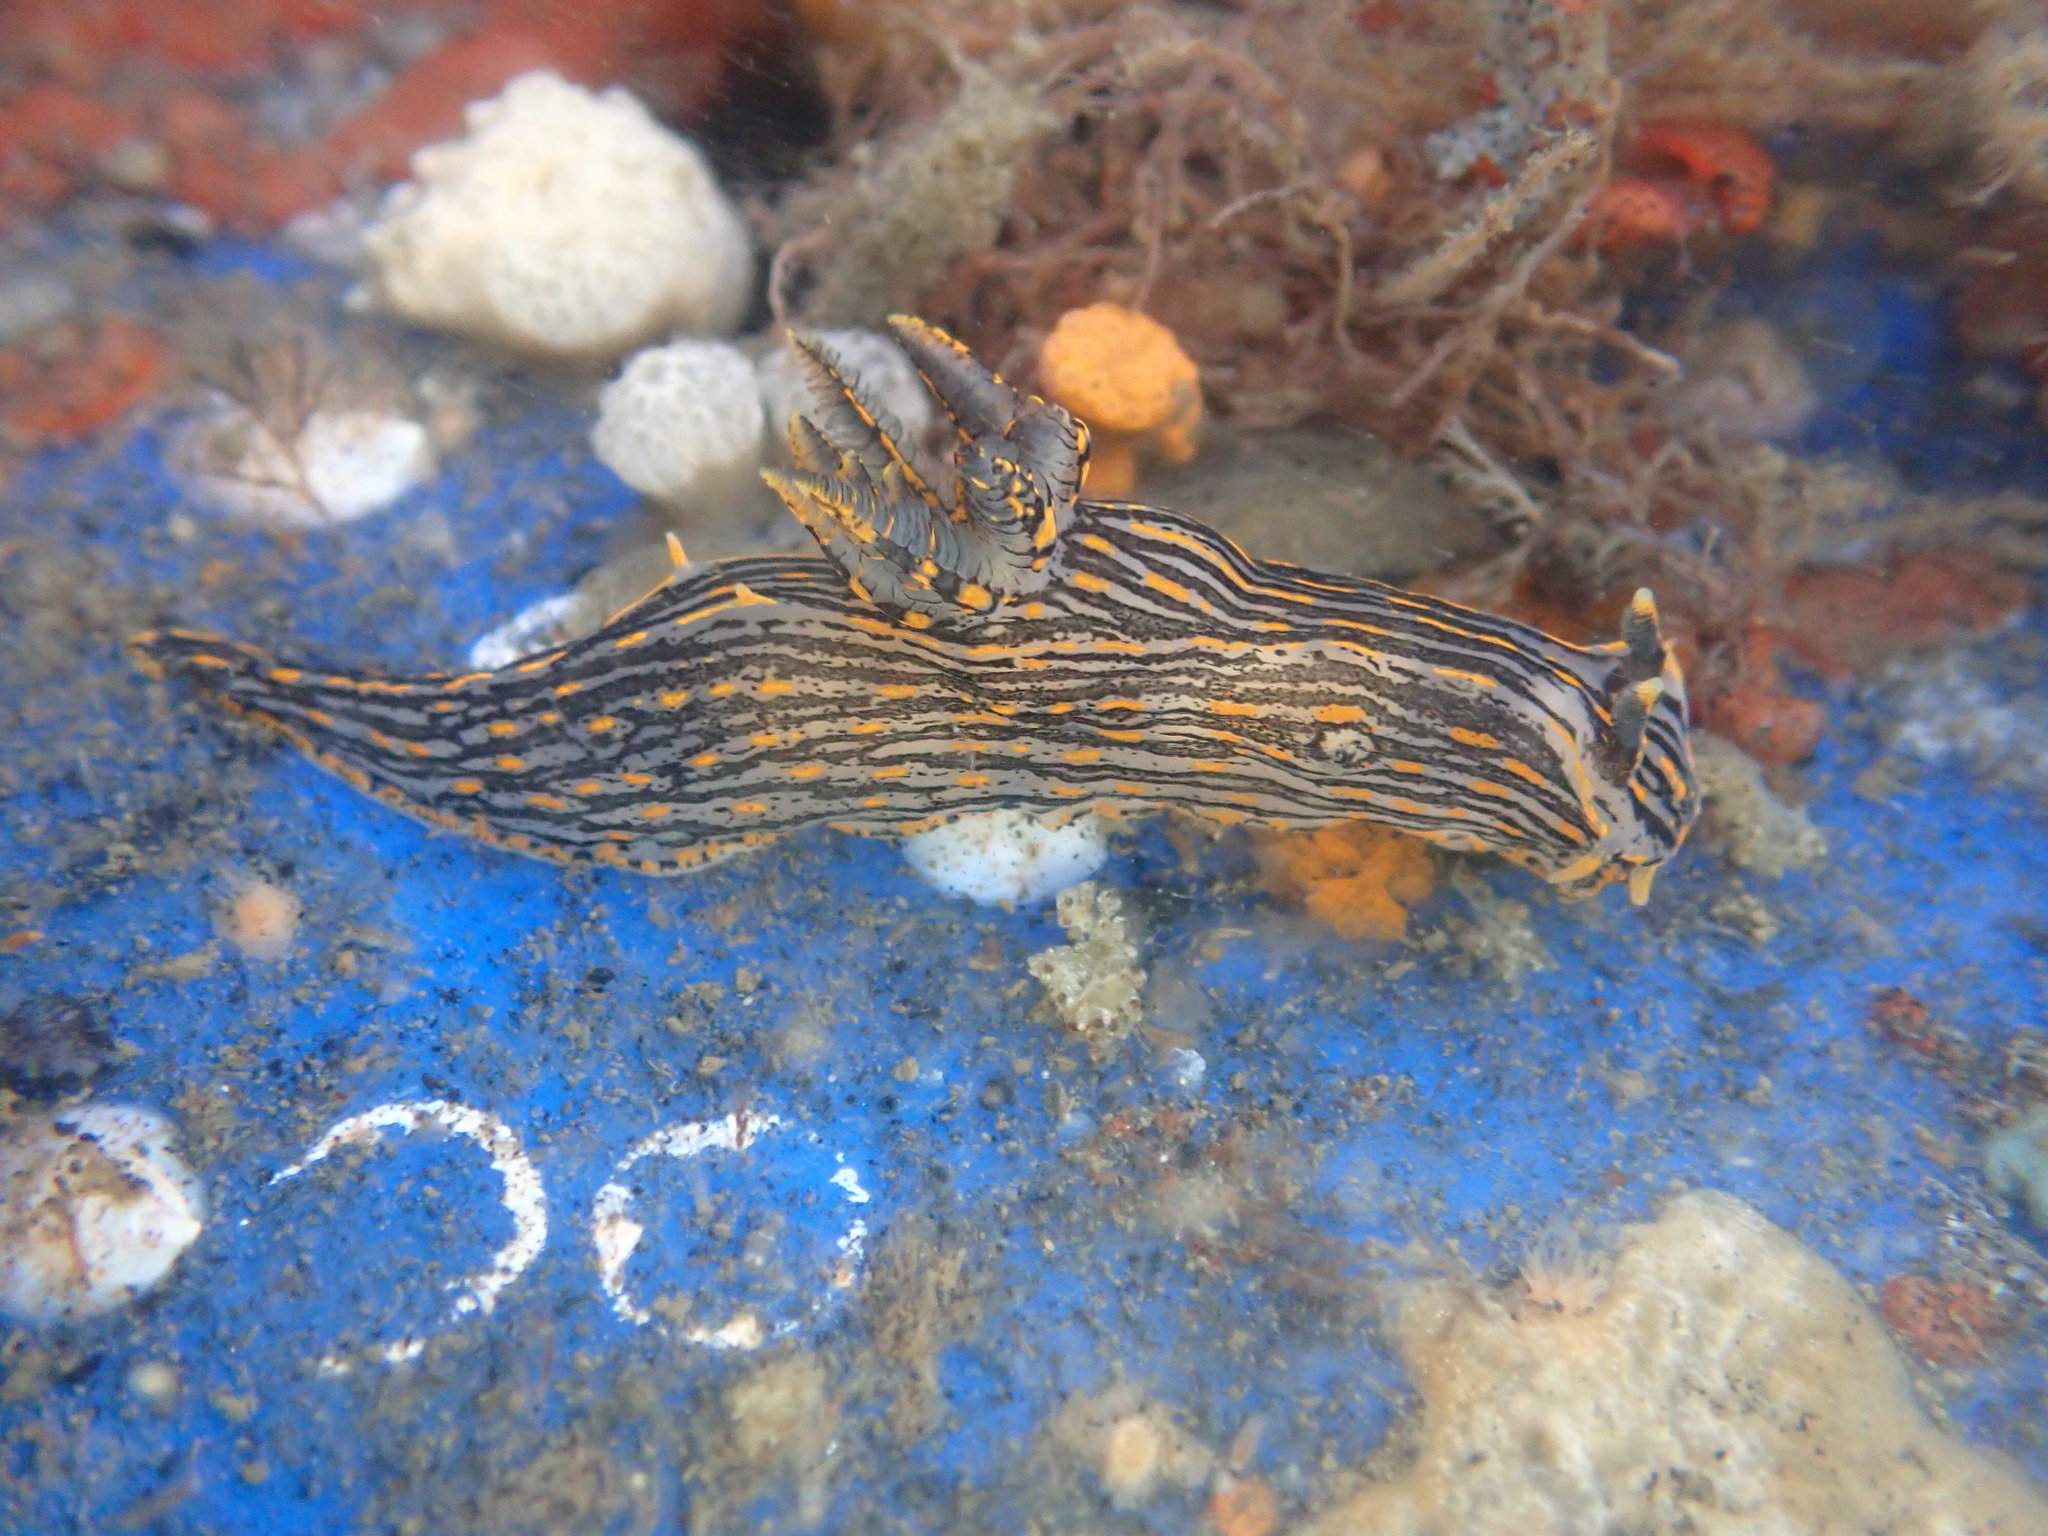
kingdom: Animalia
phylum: Mollusca
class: Gastropoda
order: Nudibranchia
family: Polyceridae
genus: Polycera
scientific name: Polycera atra
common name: Orange-spike polycera
